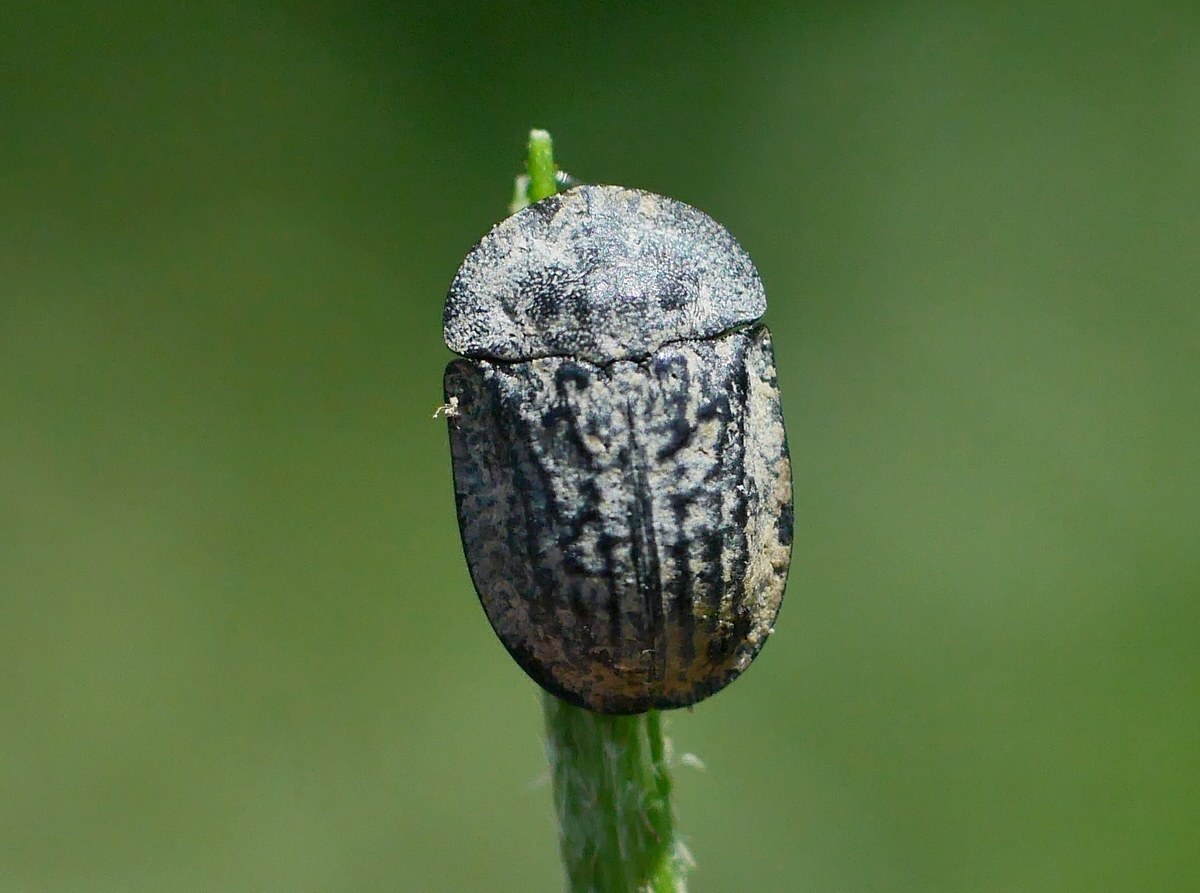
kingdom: Animalia
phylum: Arthropoda
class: Insecta
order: Coleoptera
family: Chrysomelidae
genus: Cassida
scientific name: Cassida atrata
